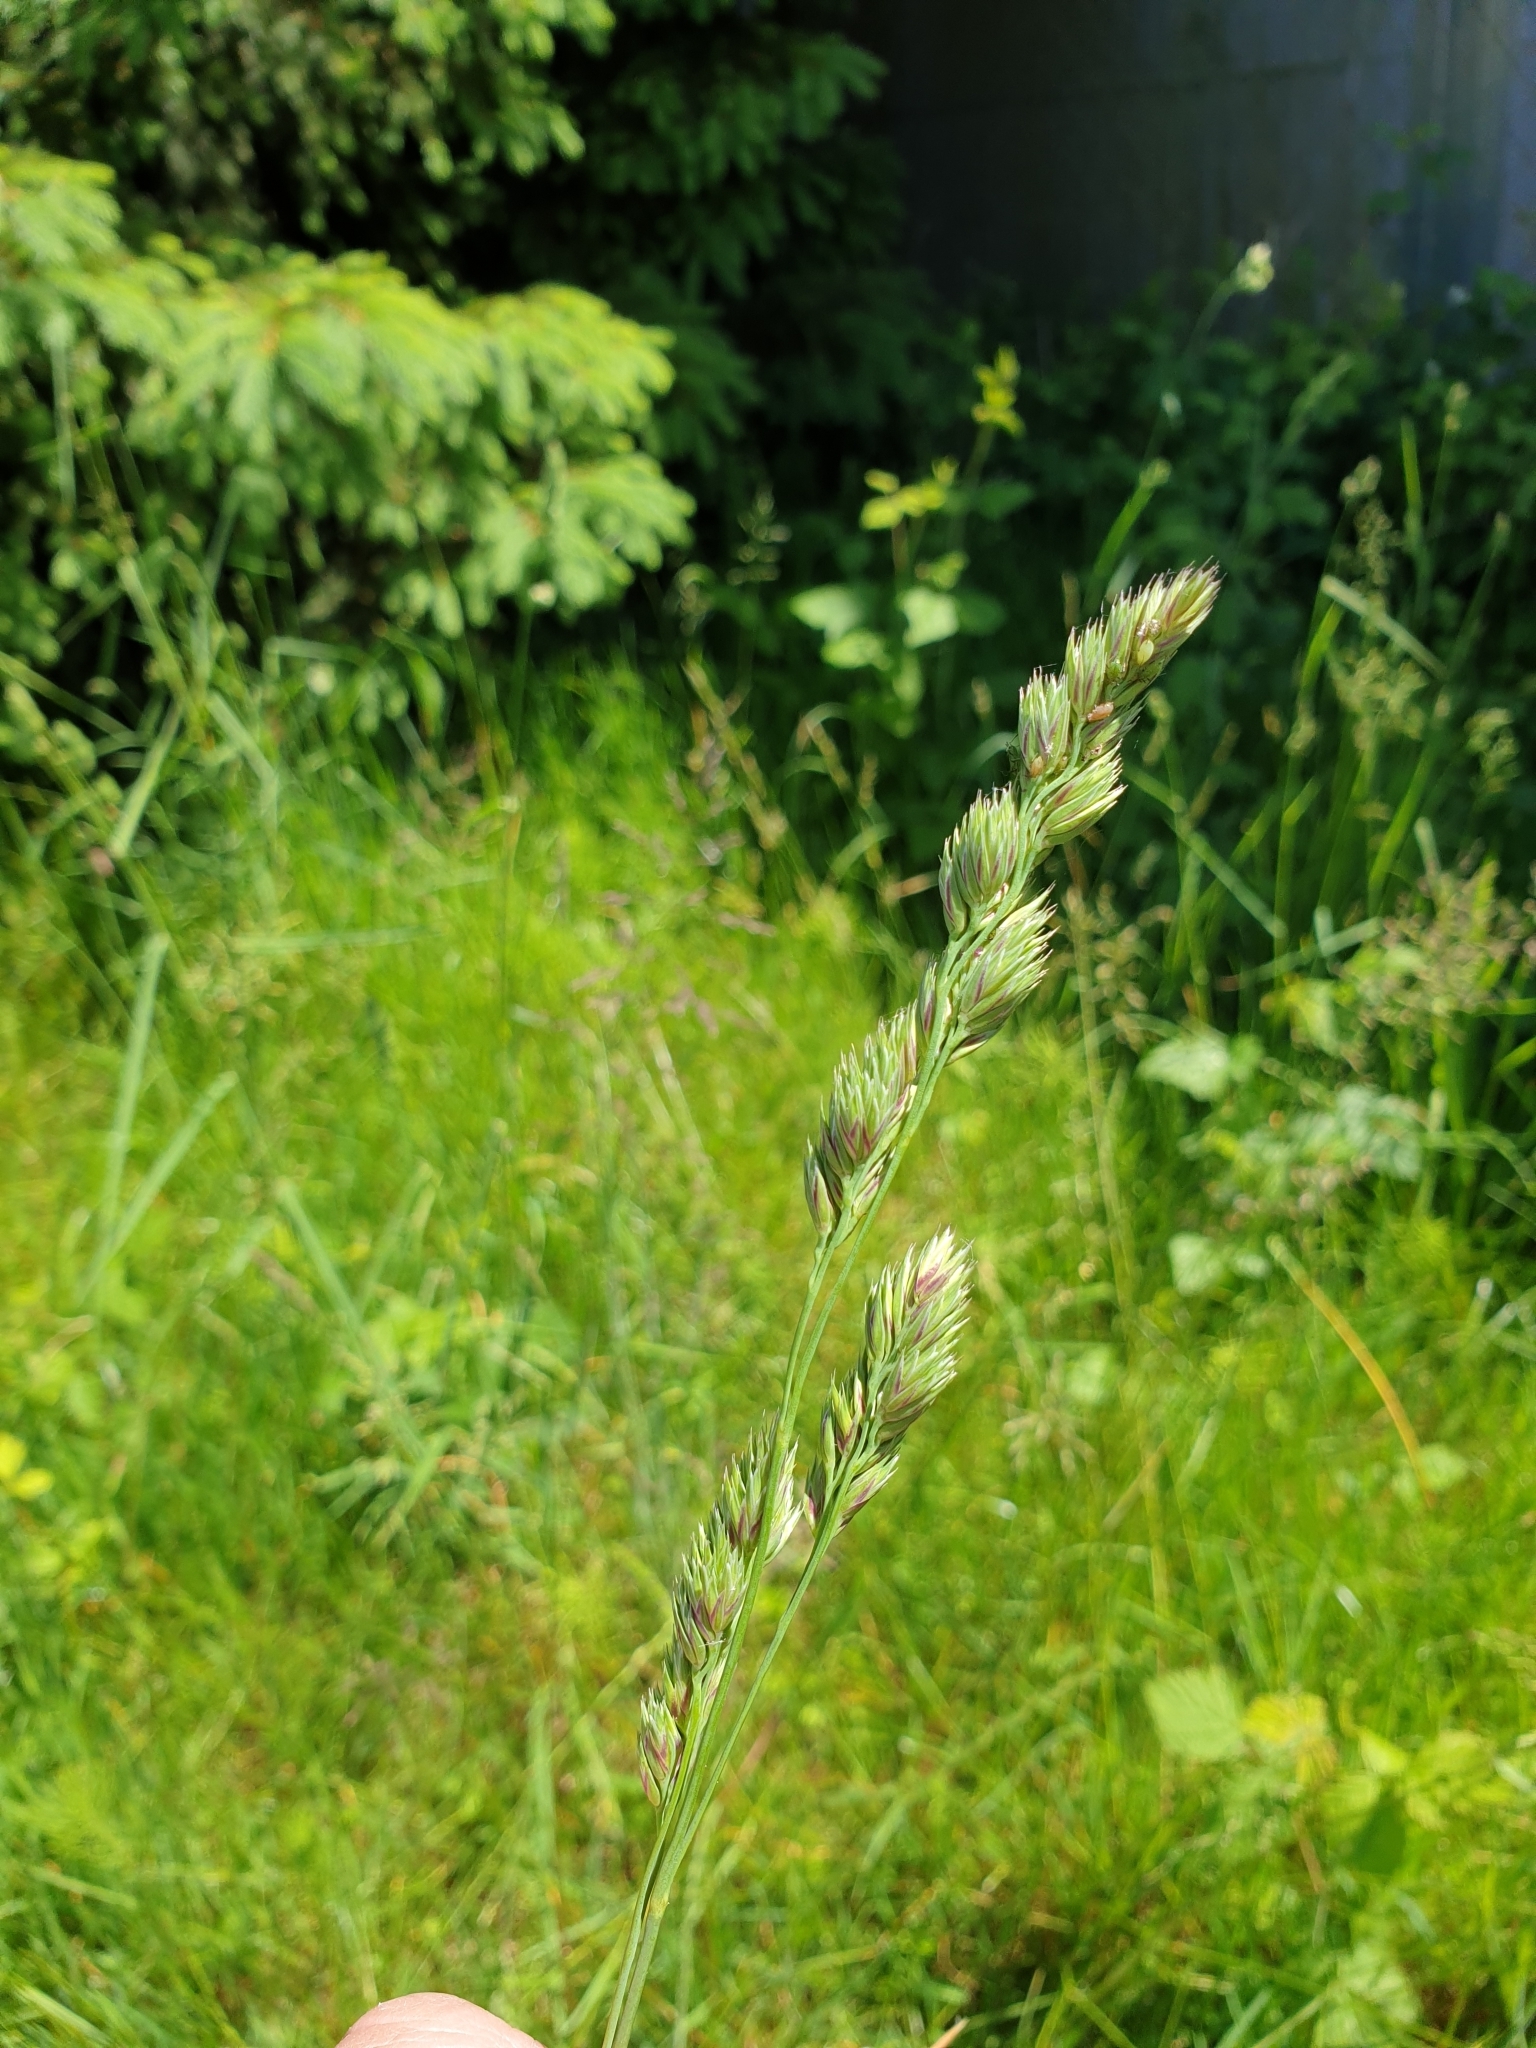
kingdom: Plantae
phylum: Tracheophyta
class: Liliopsida
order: Poales
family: Poaceae
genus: Dactylis
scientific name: Dactylis glomerata
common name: Orchardgrass
